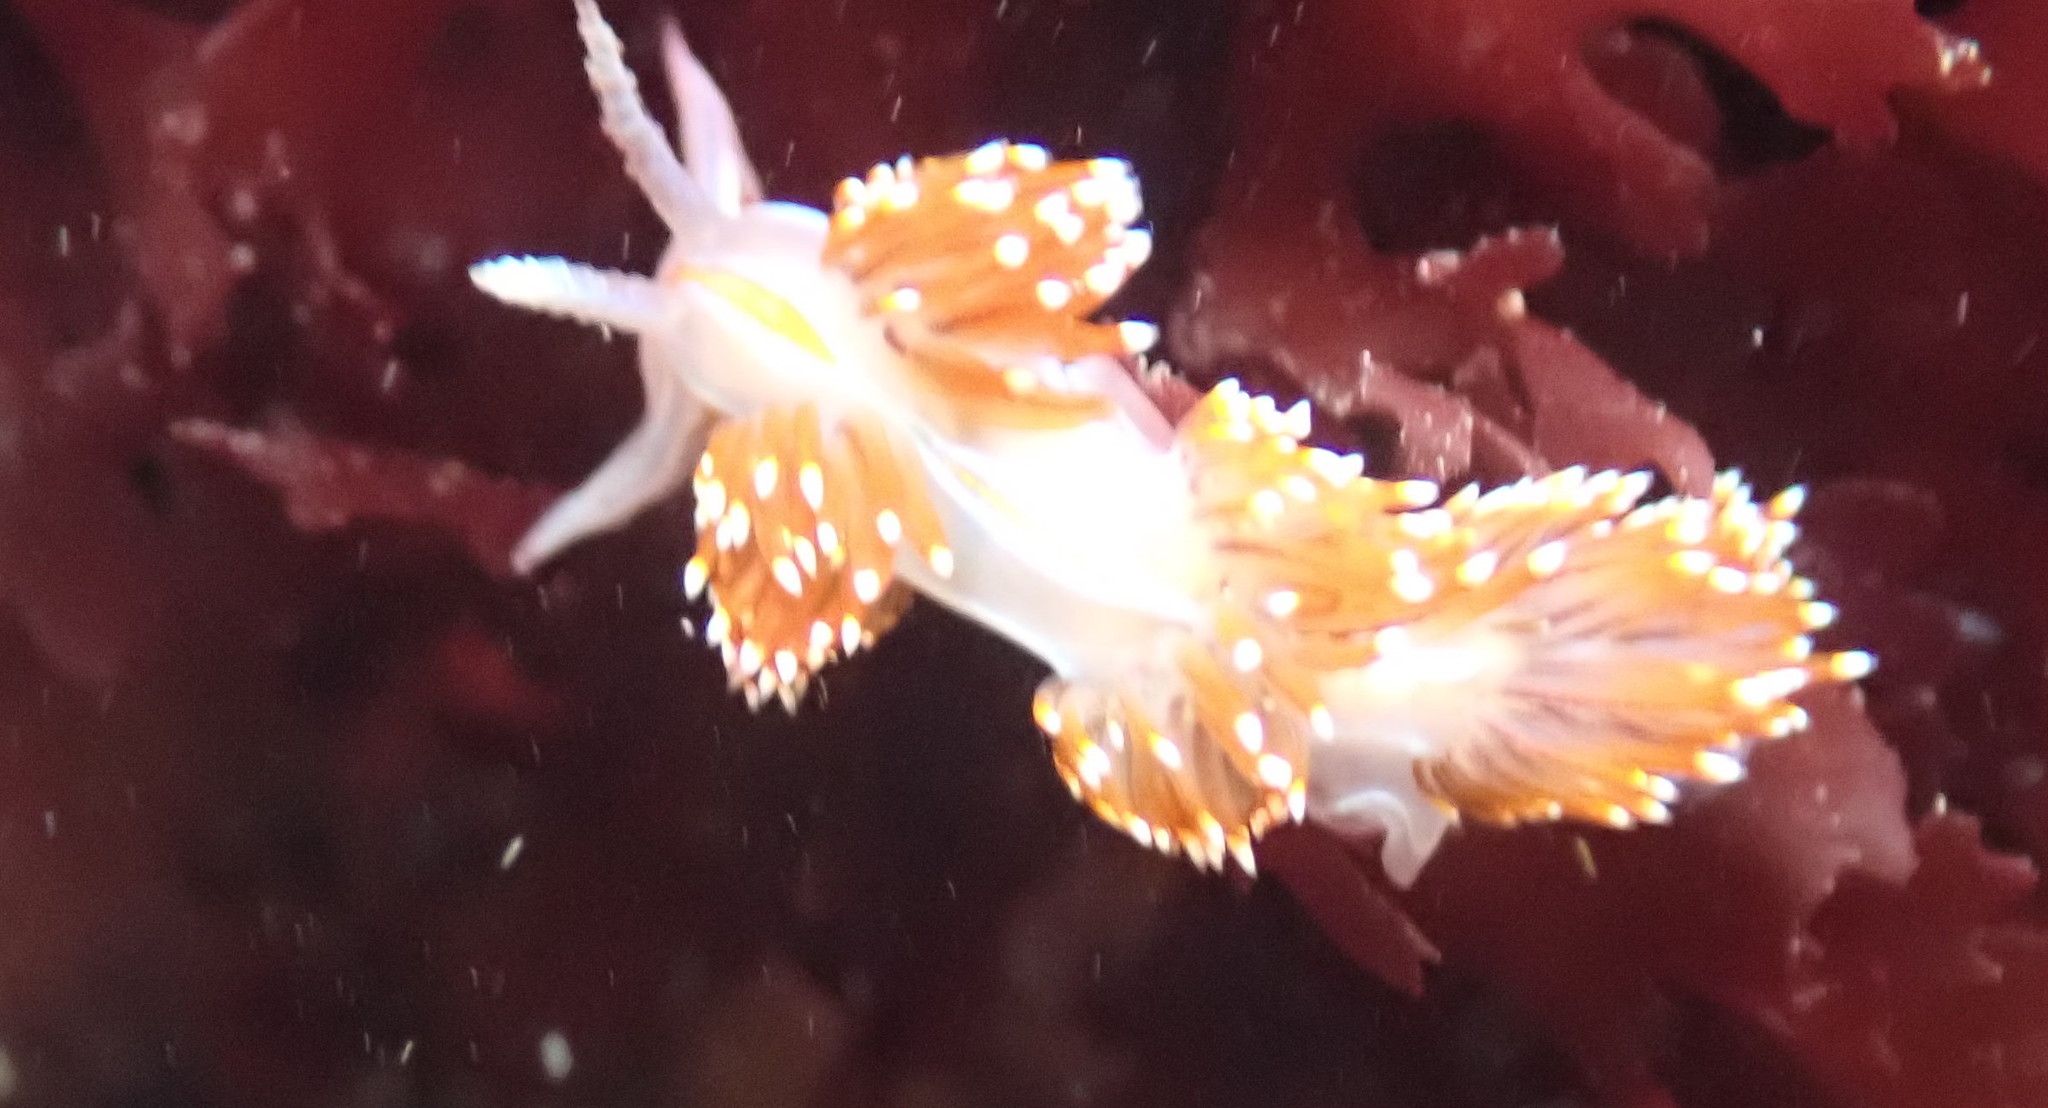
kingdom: Animalia
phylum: Mollusca
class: Gastropoda
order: Nudibranchia
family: Myrrhinidae
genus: Hermissenda
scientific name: Hermissenda opalescens
